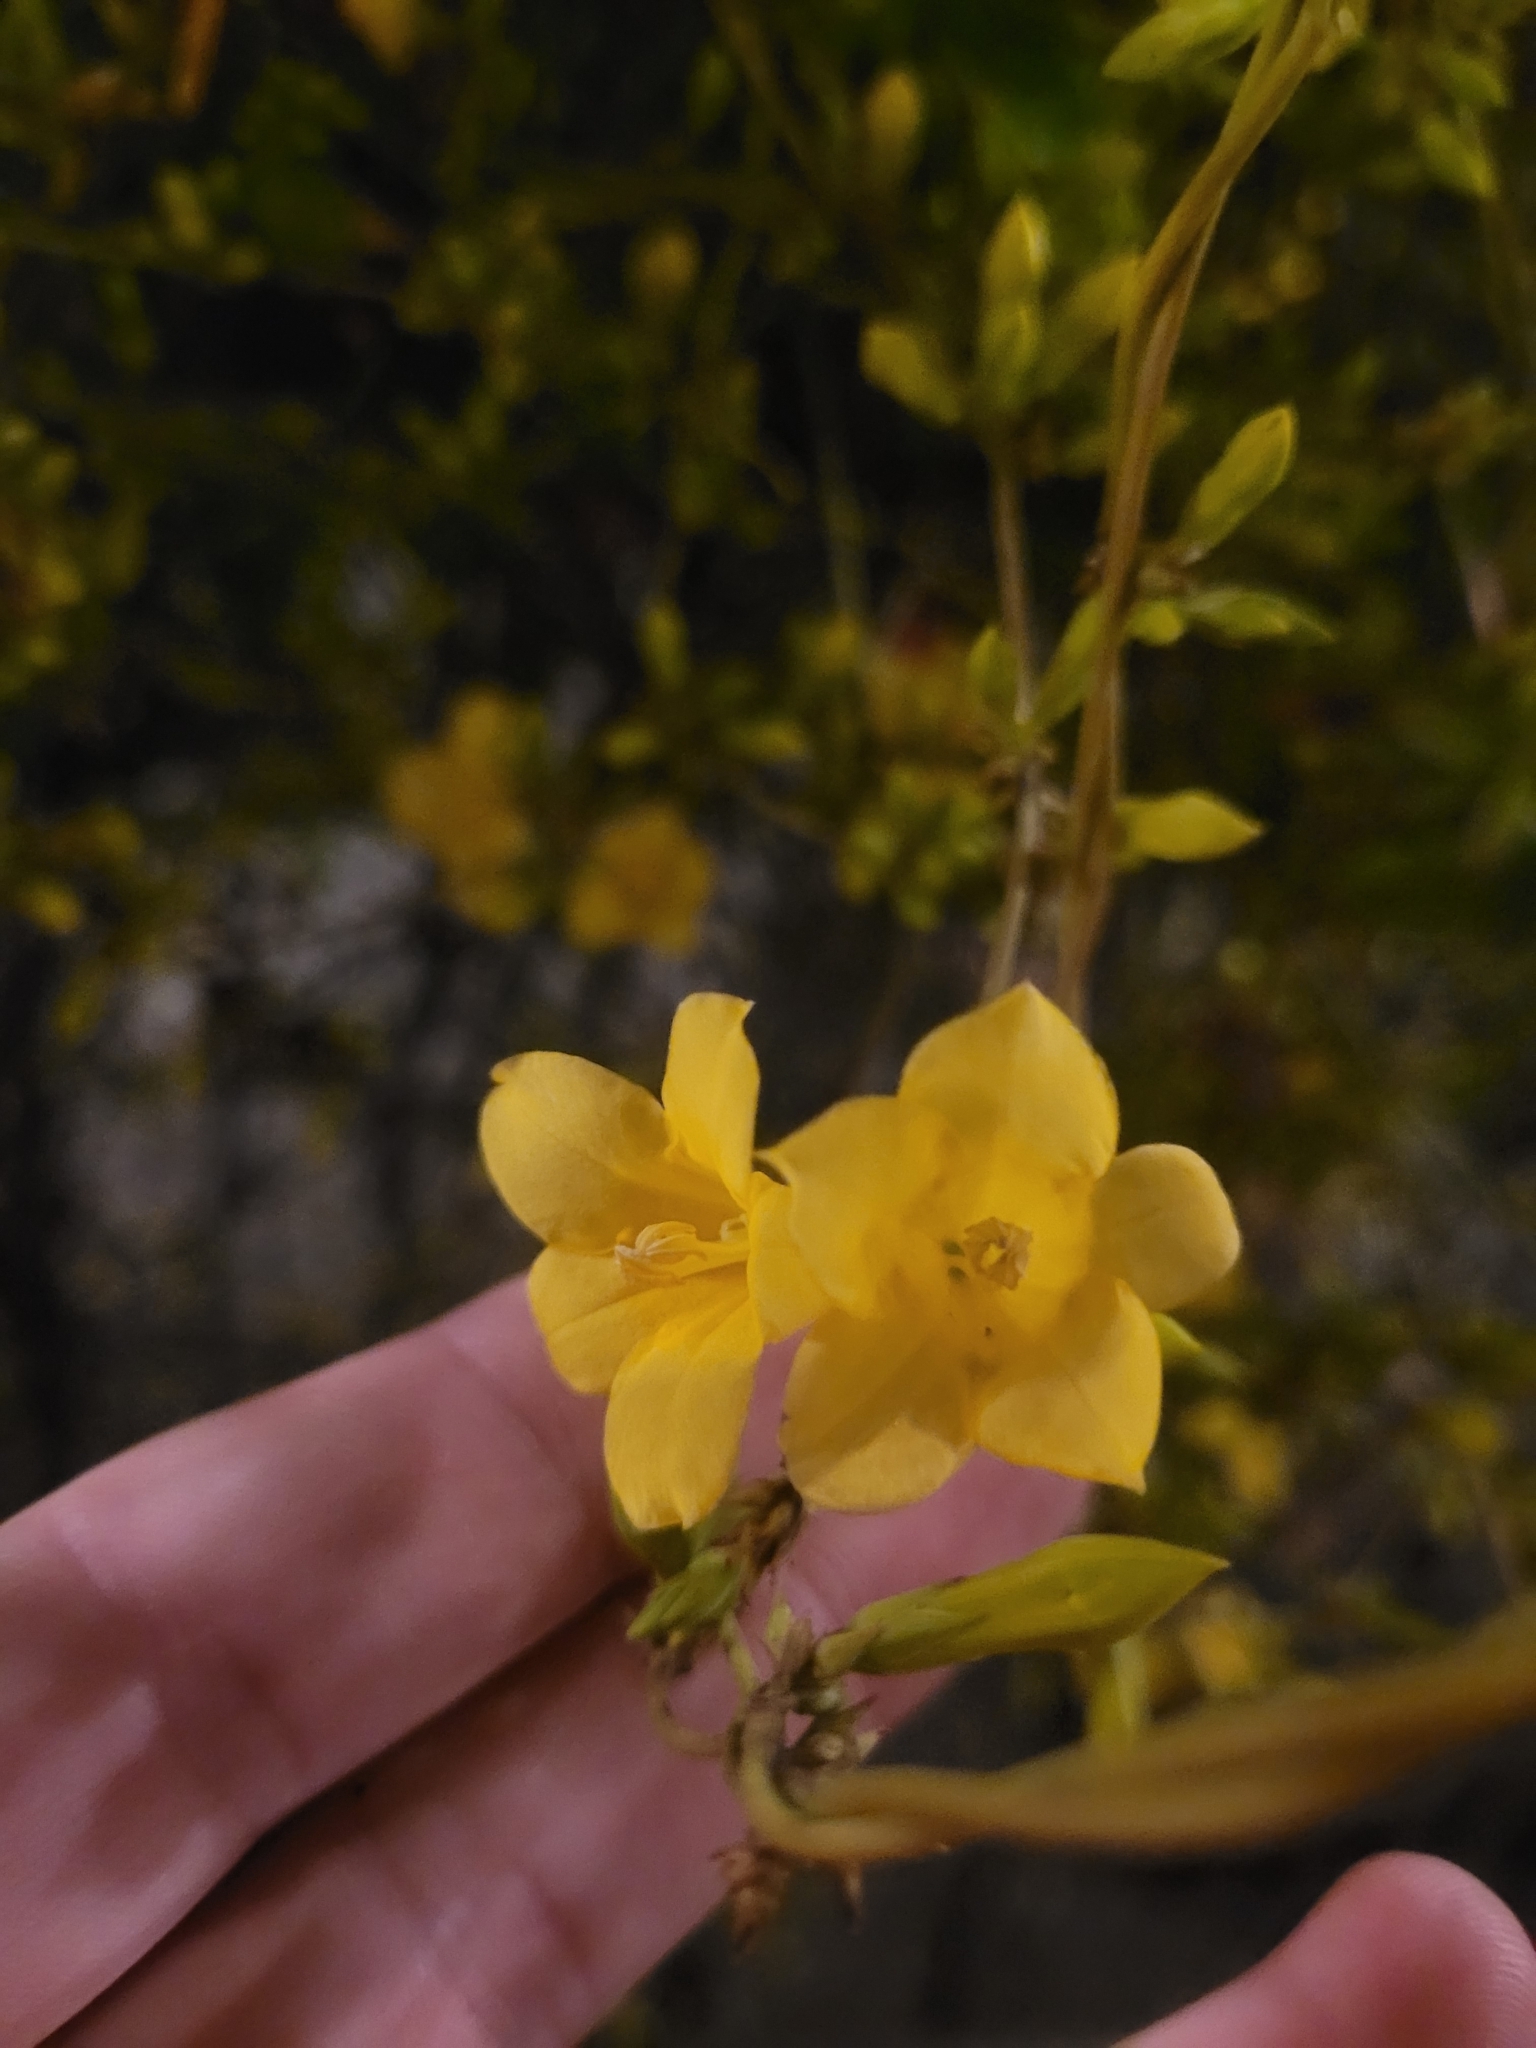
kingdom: Plantae
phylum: Tracheophyta
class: Magnoliopsida
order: Gentianales
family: Gelsemiaceae
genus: Gelsemium
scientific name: Gelsemium sempervirens
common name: Carolina-jasmine
